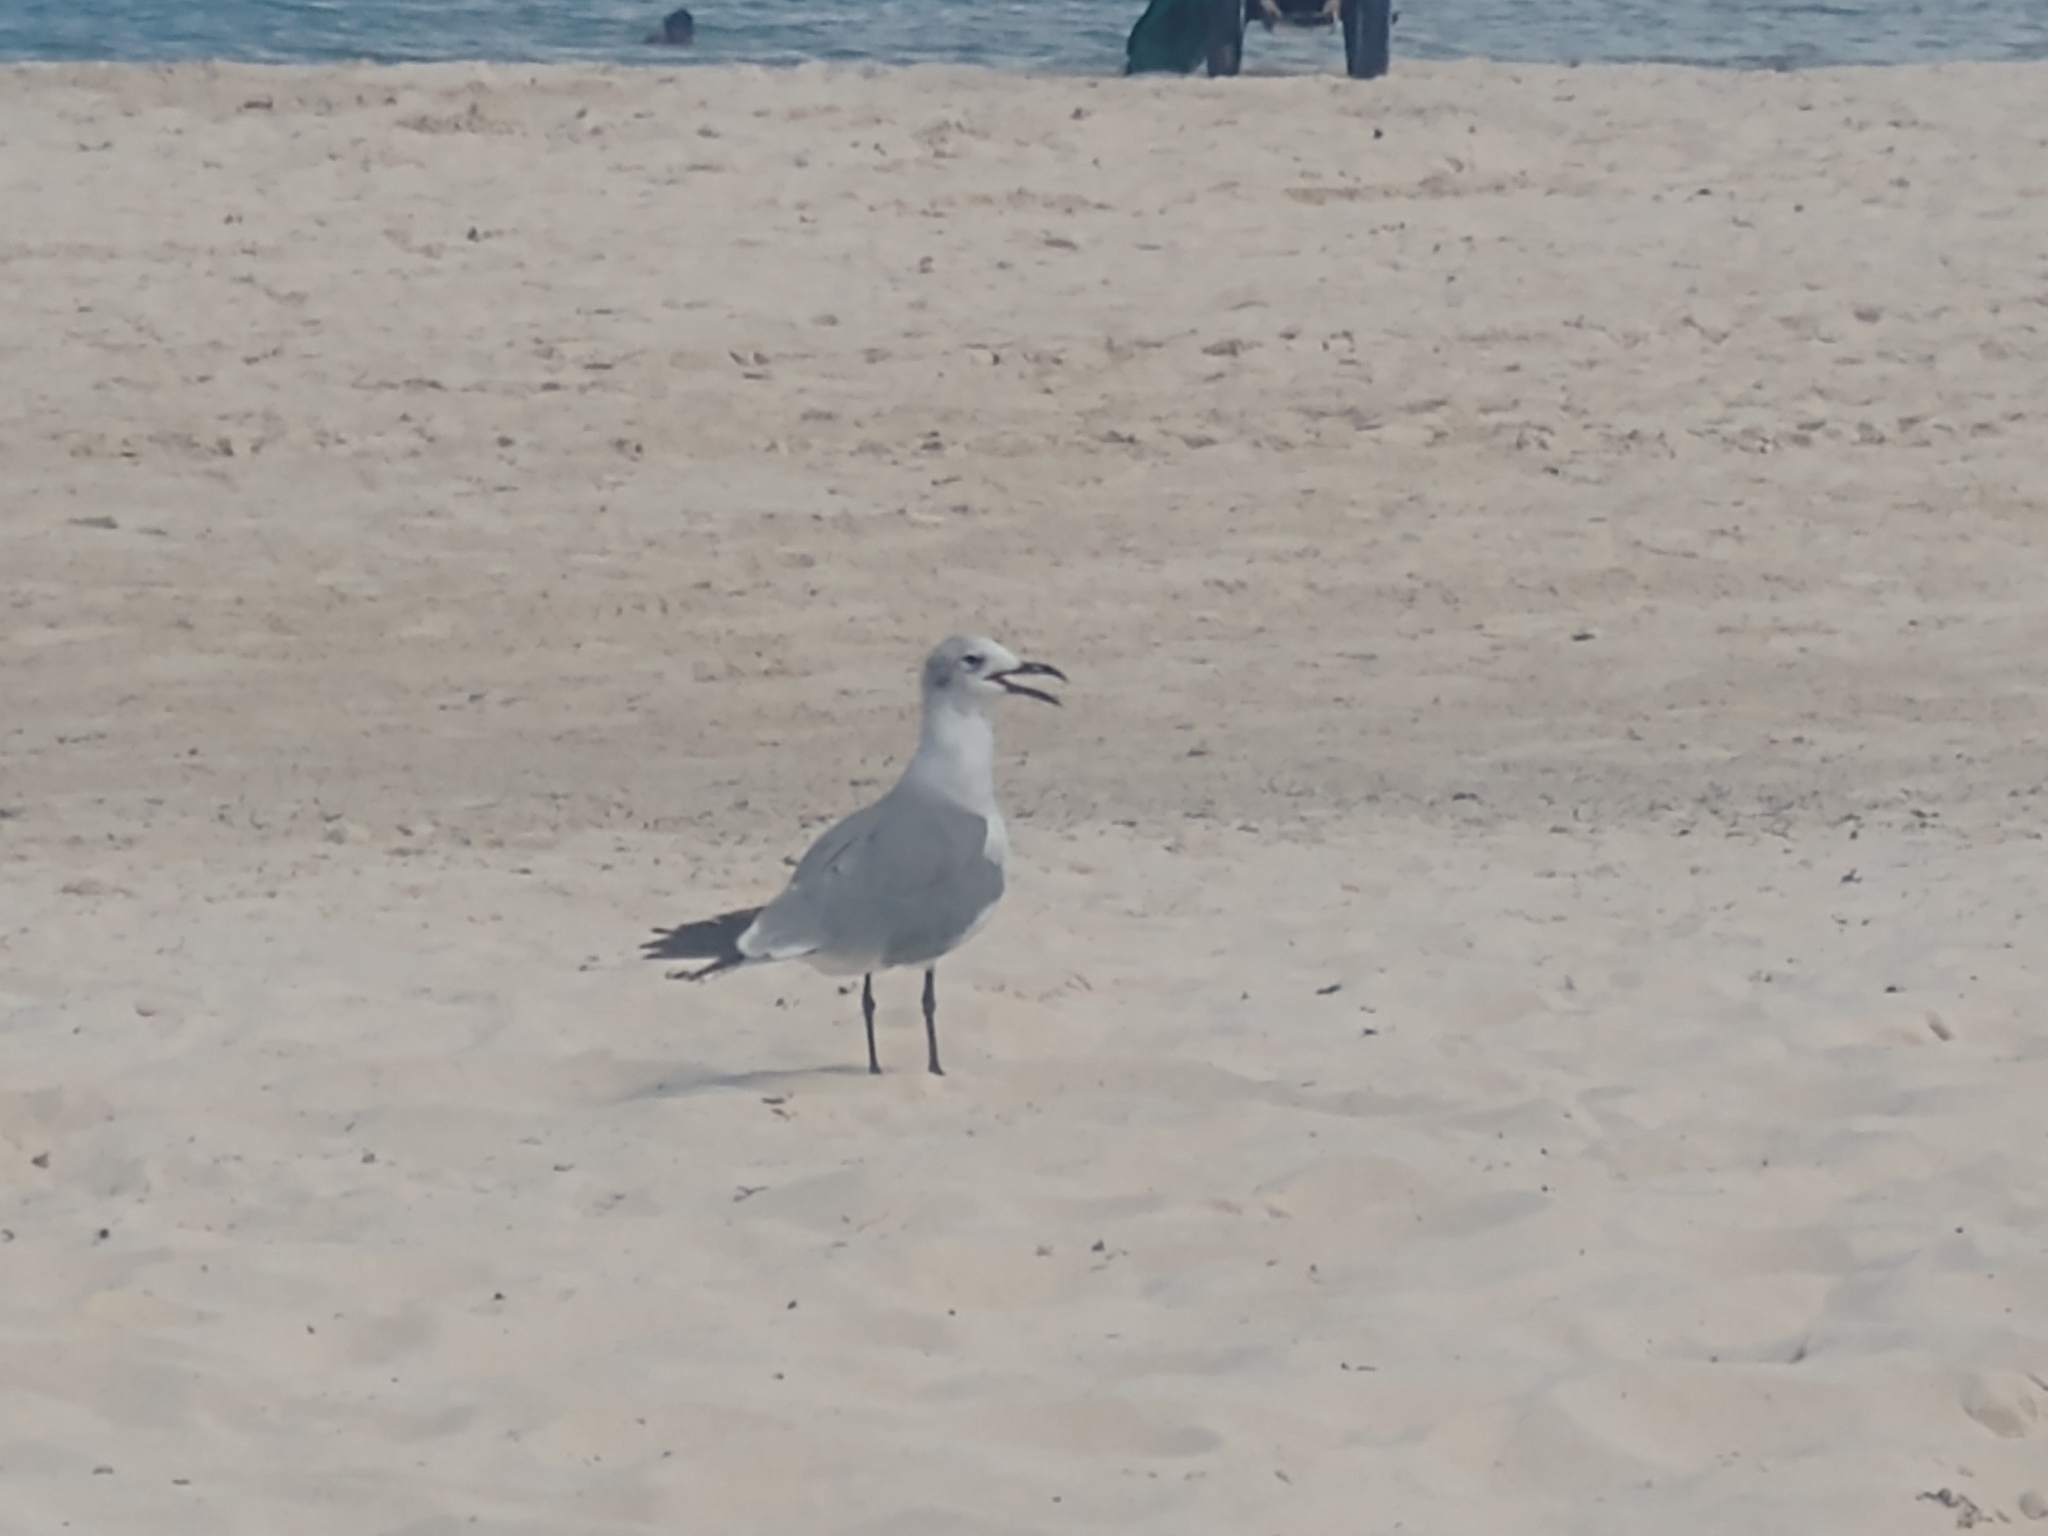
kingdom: Animalia
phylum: Chordata
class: Aves
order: Charadriiformes
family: Laridae
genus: Leucophaeus
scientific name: Leucophaeus atricilla
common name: Laughing gull
